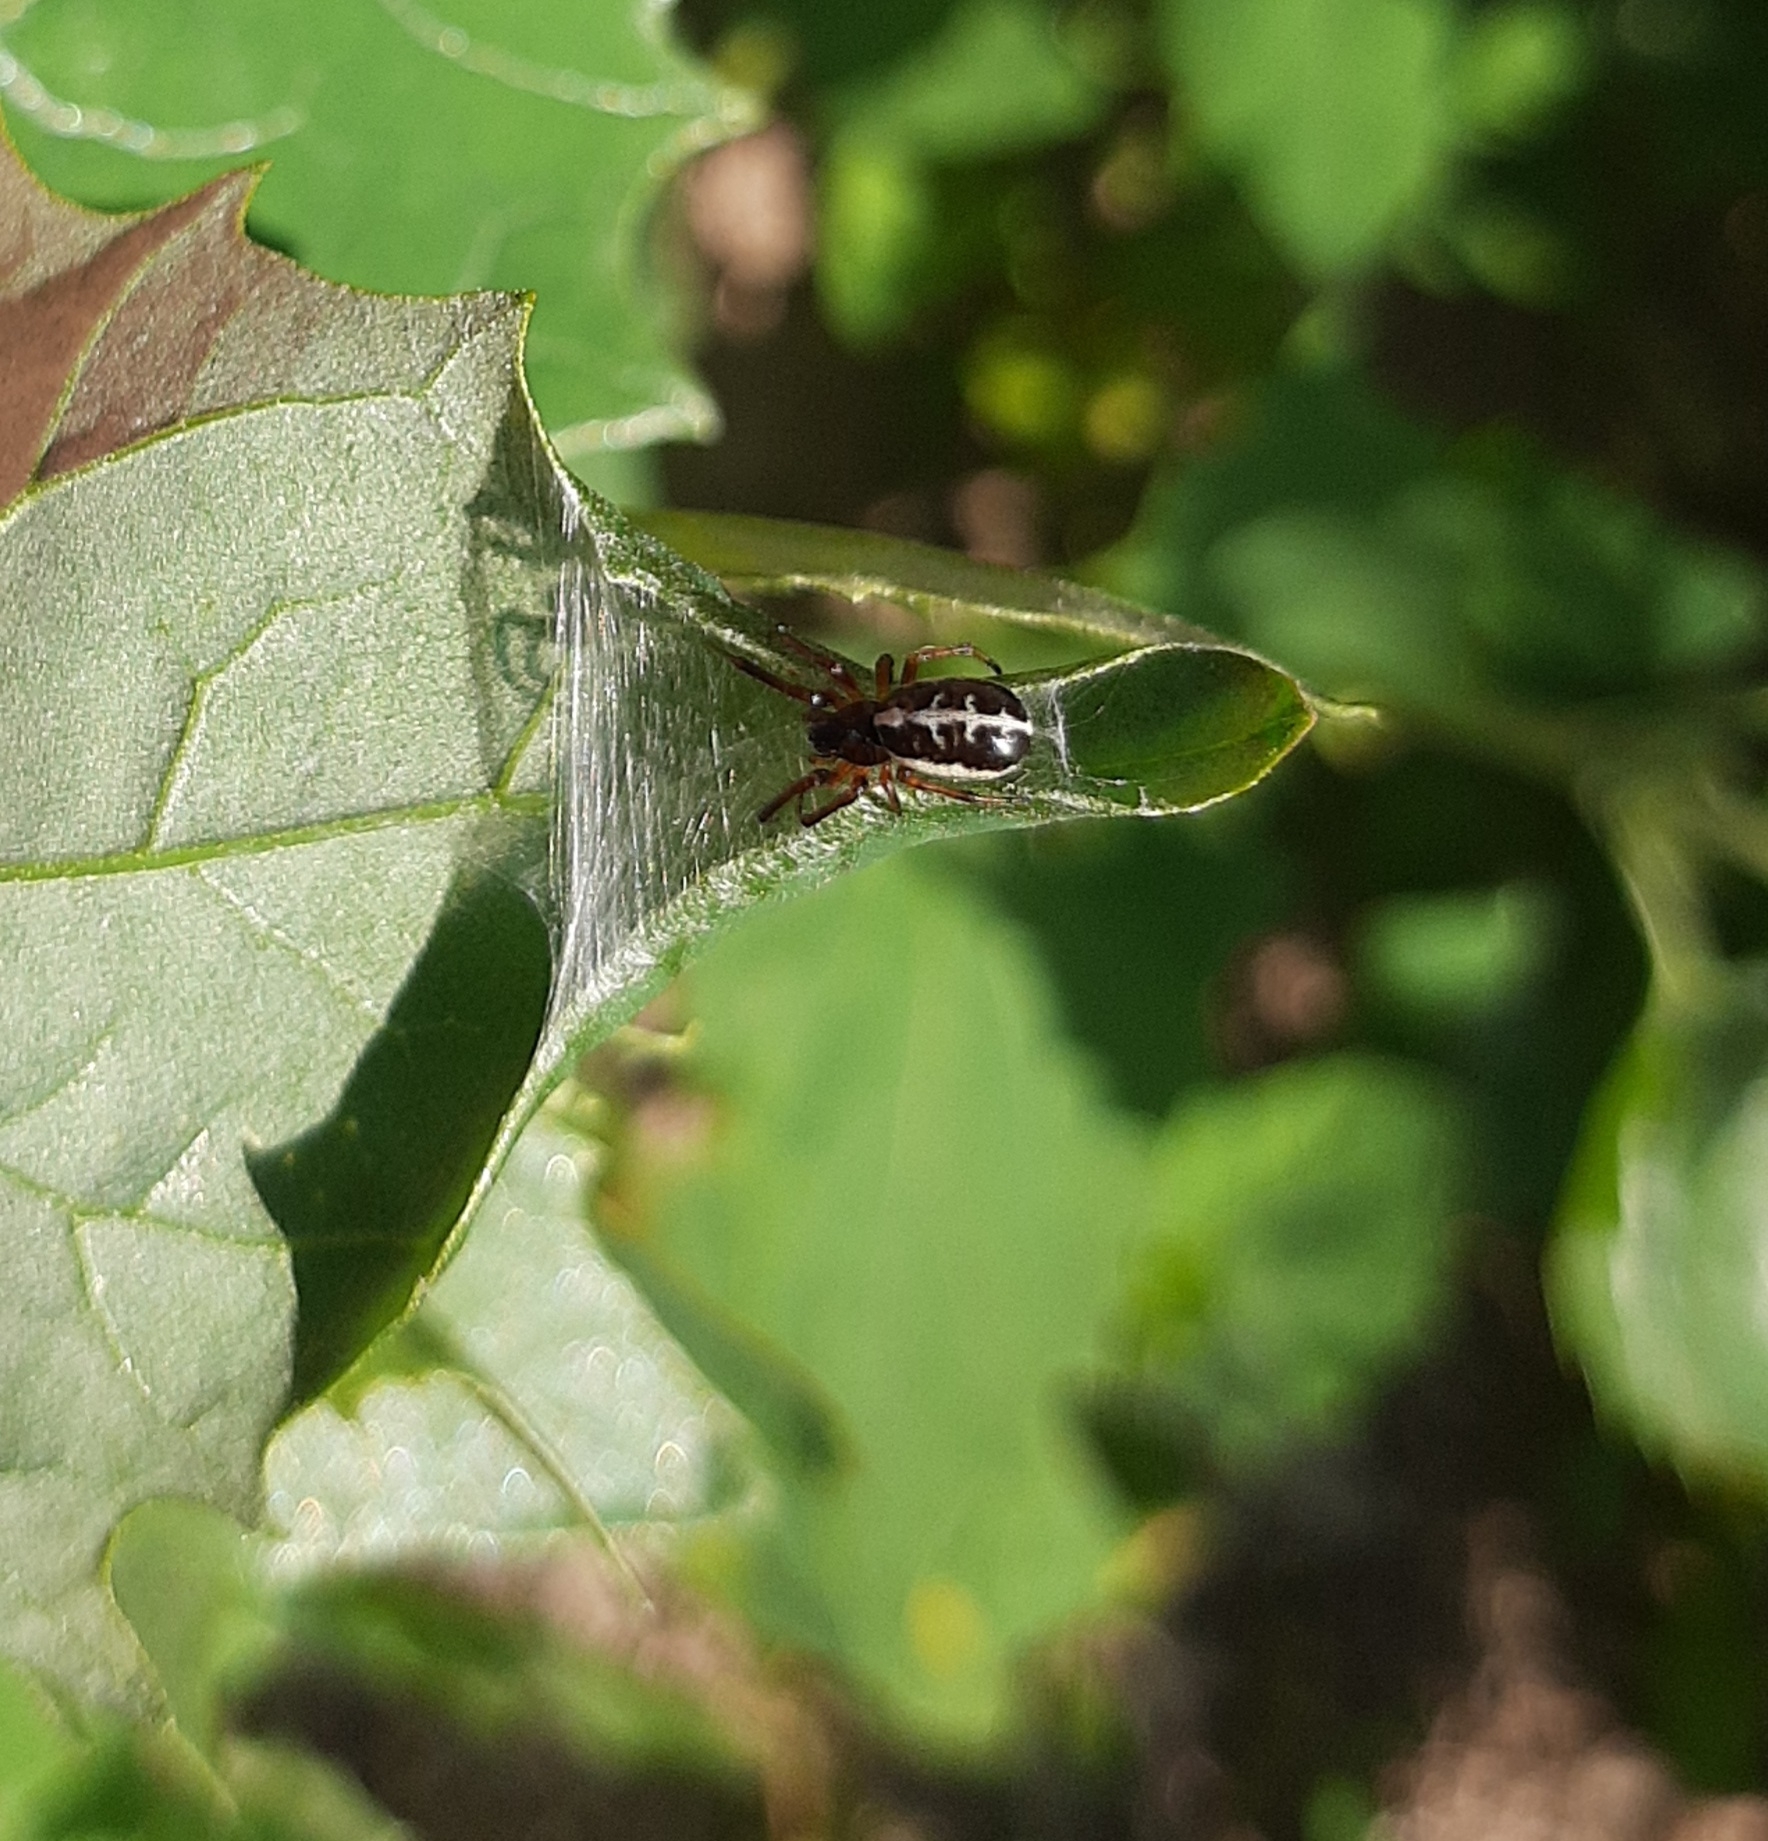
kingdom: Animalia
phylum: Arthropoda
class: Arachnida
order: Araneae
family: Araneidae
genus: Singa
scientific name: Singa nitidula
